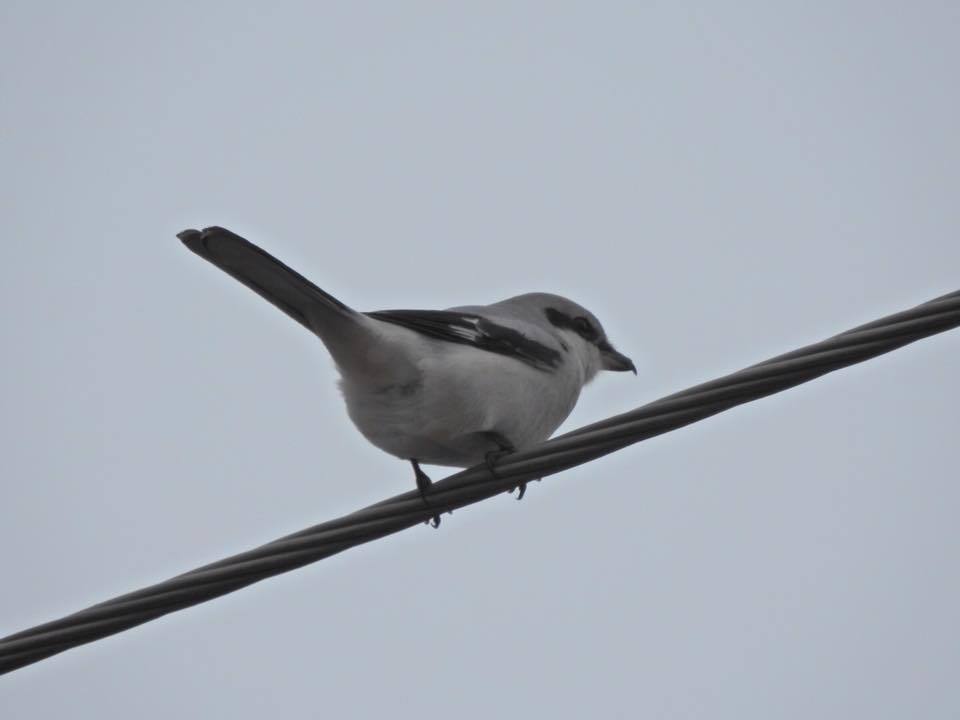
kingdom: Animalia
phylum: Chordata
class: Aves
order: Passeriformes
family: Laniidae
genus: Lanius
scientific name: Lanius excubitor
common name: Great grey shrike
